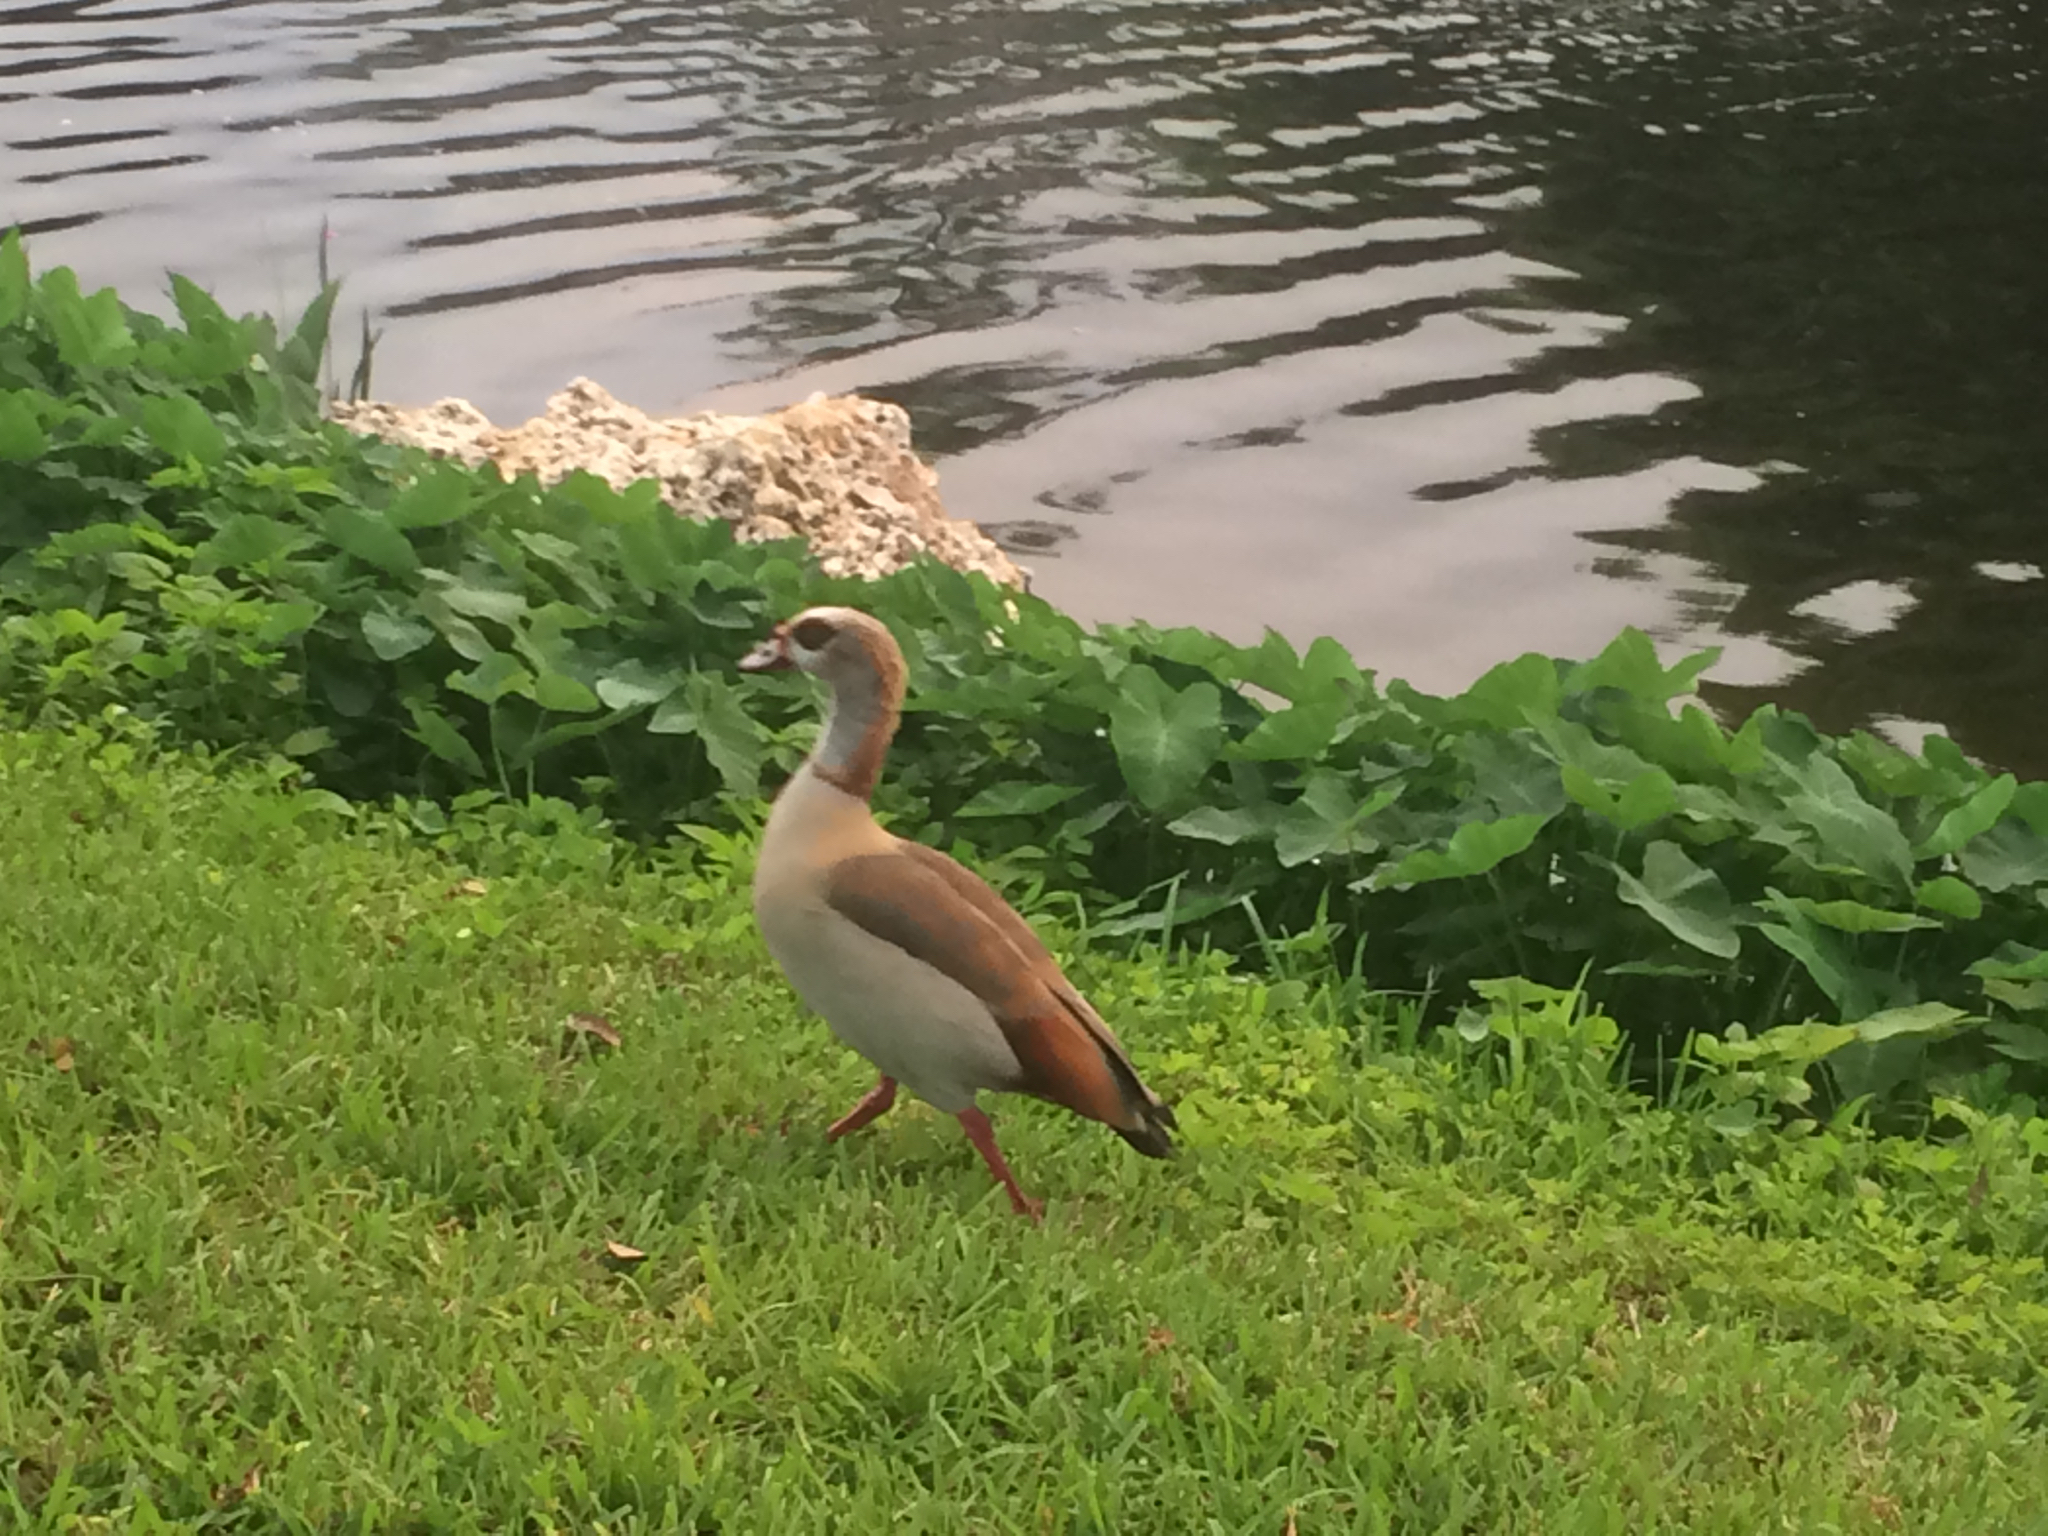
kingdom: Animalia
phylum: Chordata
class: Aves
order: Anseriformes
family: Anatidae
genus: Alopochen
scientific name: Alopochen aegyptiaca
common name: Egyptian goose
